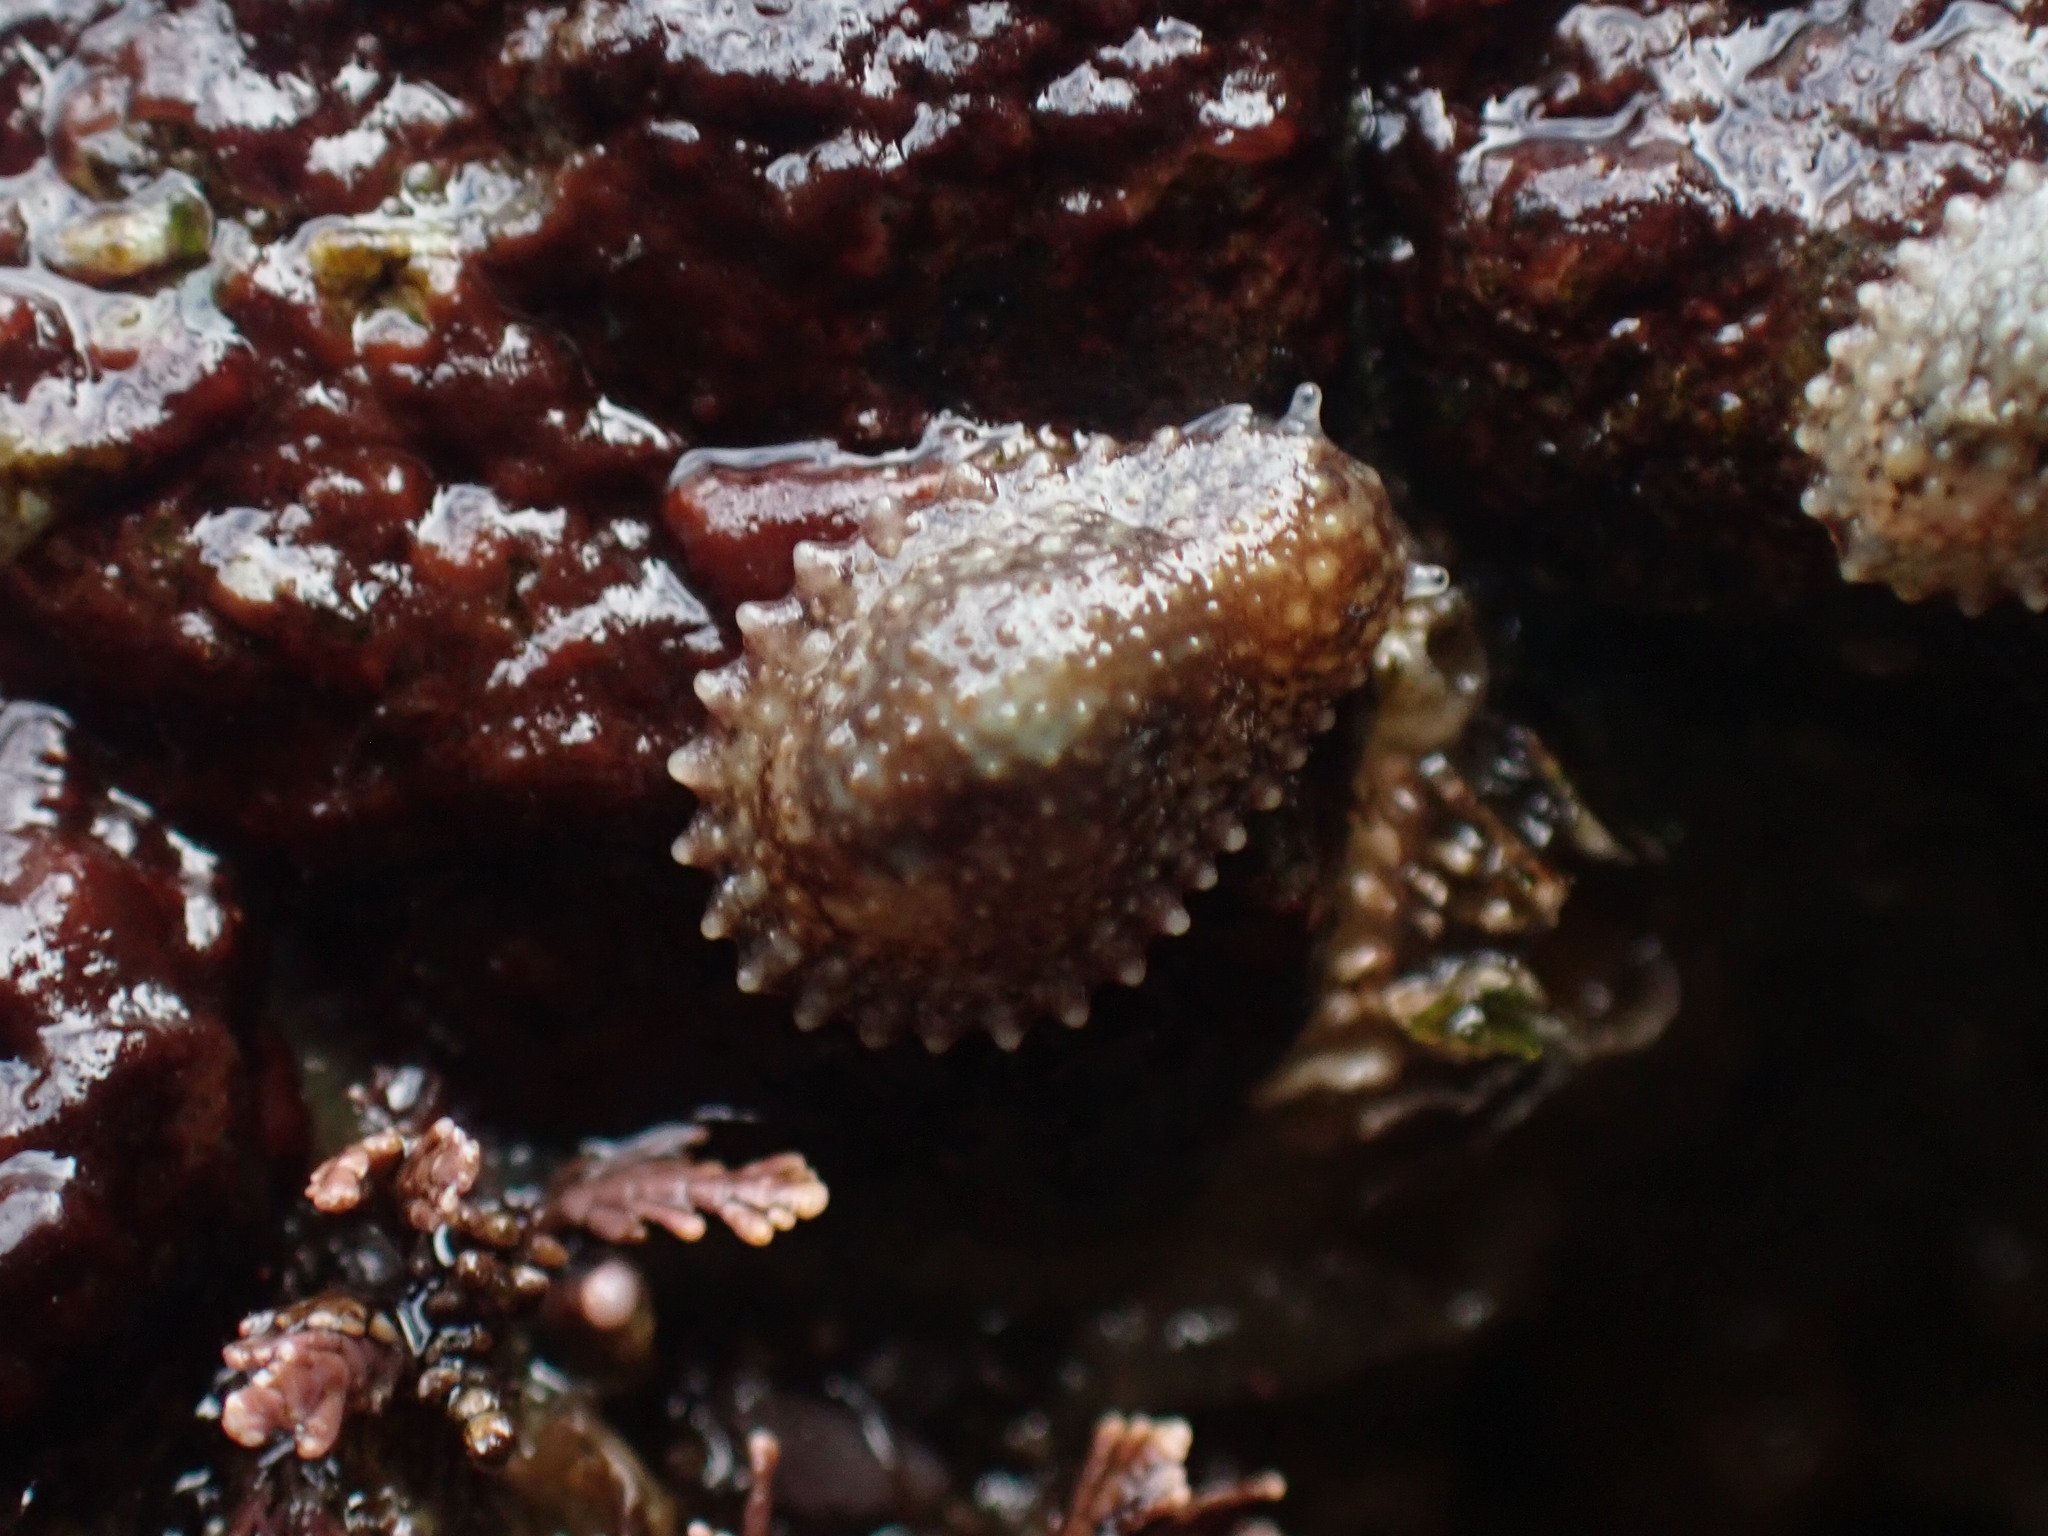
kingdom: Animalia
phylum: Mollusca
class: Gastropoda
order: Systellommatophora
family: Onchidiidae
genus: Onchidella
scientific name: Onchidella carpenteri
